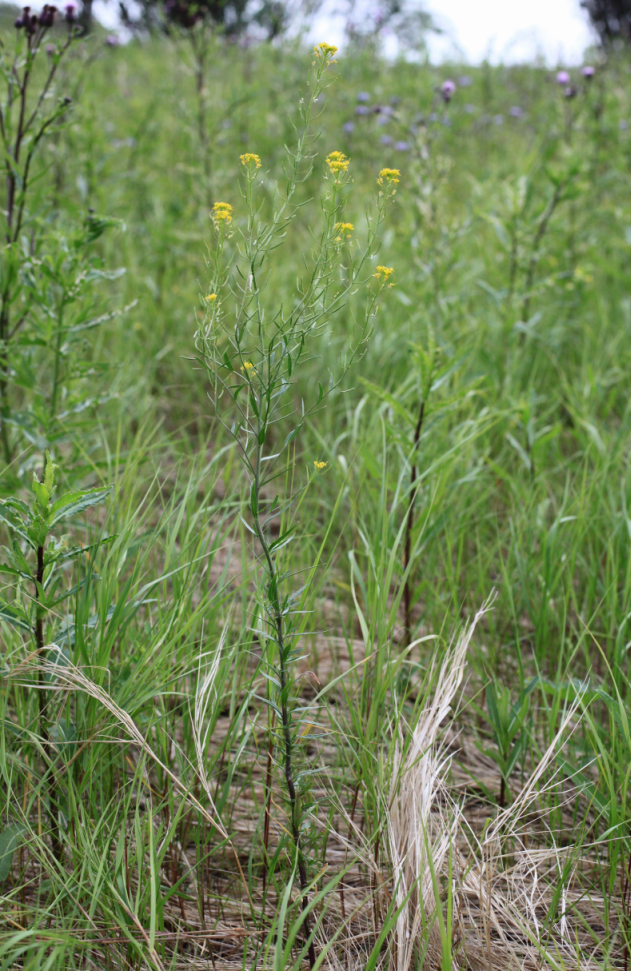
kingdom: Plantae
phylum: Tracheophyta
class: Magnoliopsida
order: Brassicales
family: Brassicaceae
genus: Erysimum
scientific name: Erysimum cheiranthoides
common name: Treacle mustard
